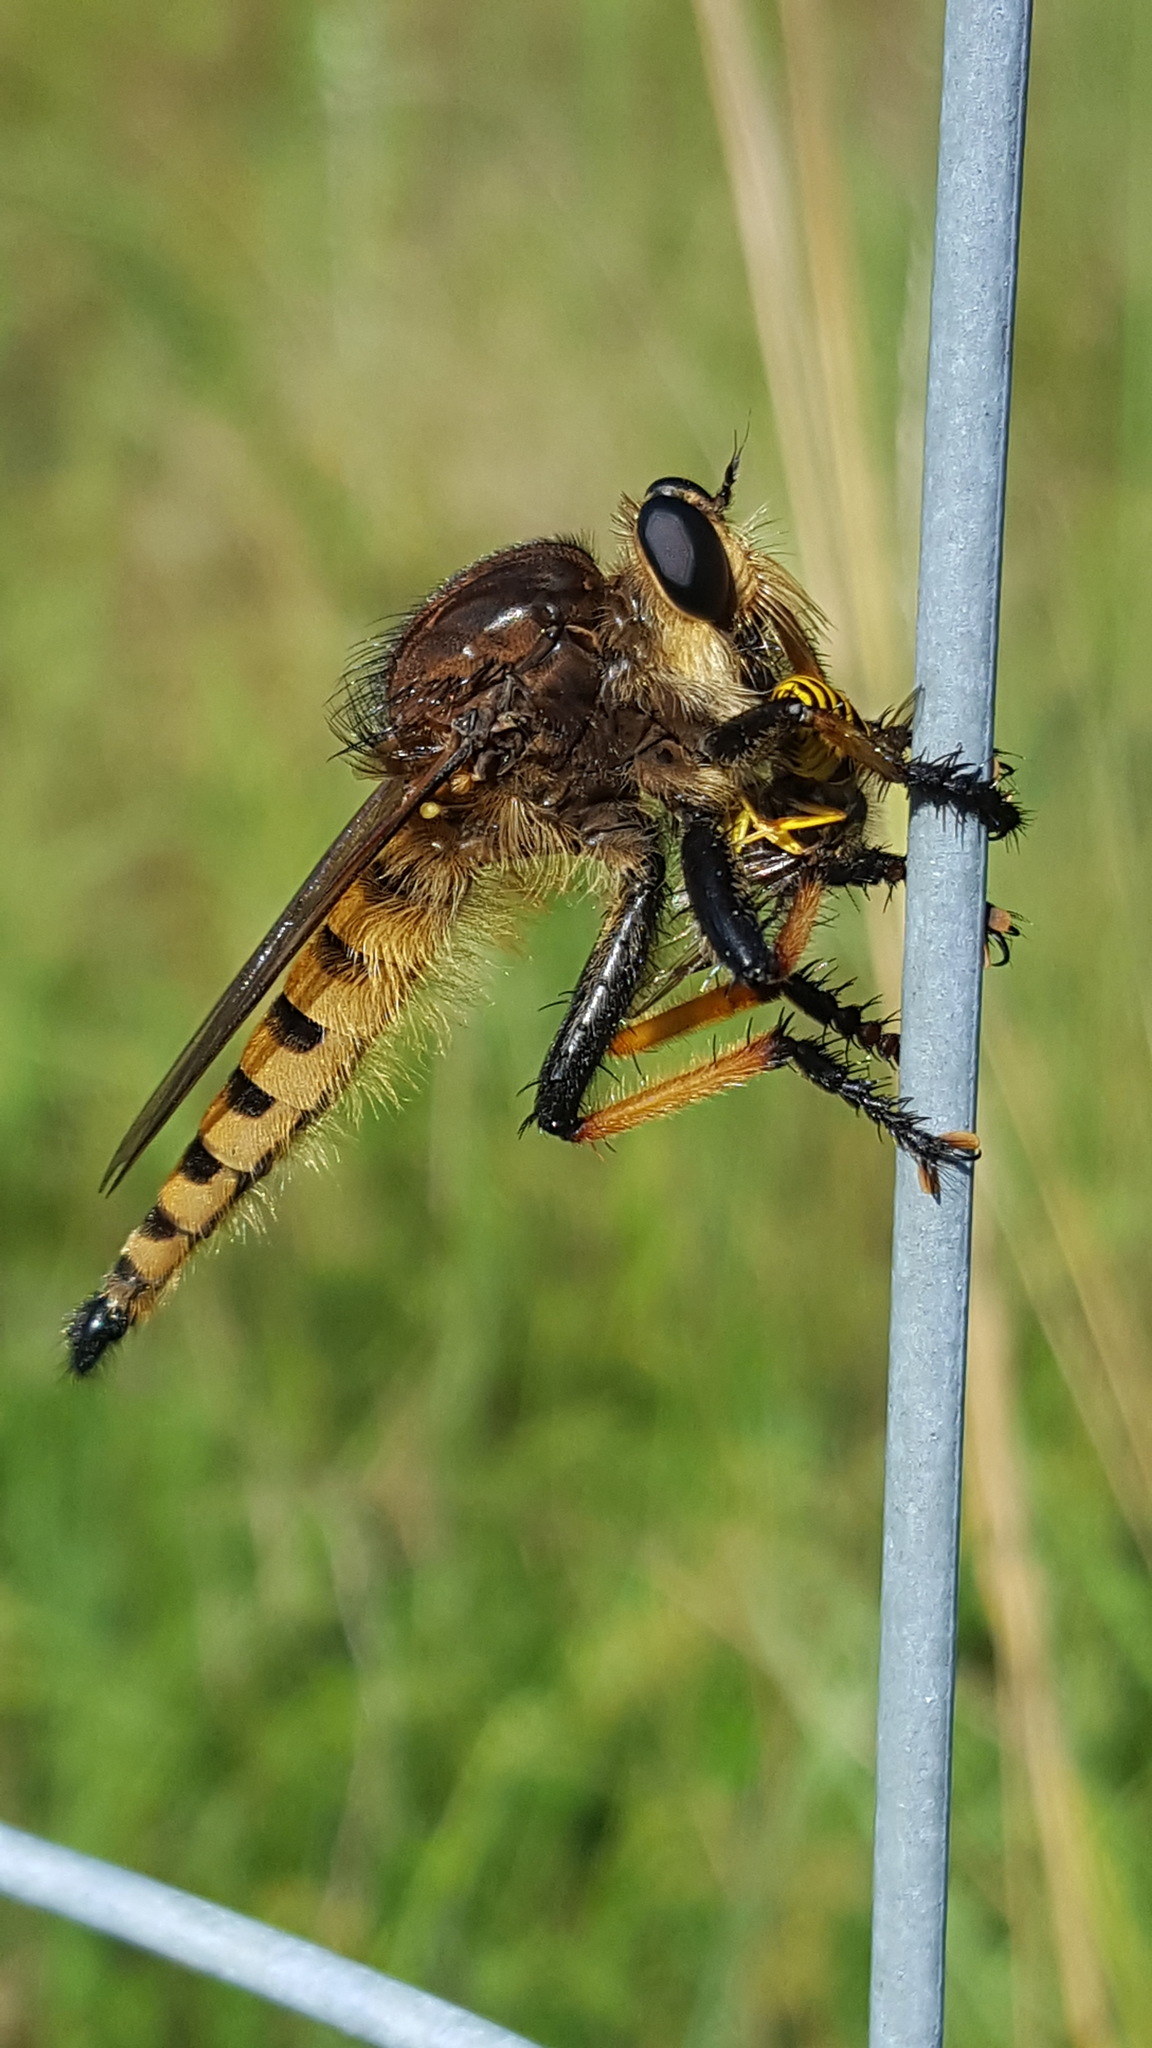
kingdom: Animalia
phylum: Arthropoda
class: Insecta
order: Diptera
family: Asilidae
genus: Promachus
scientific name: Promachus rufipes
